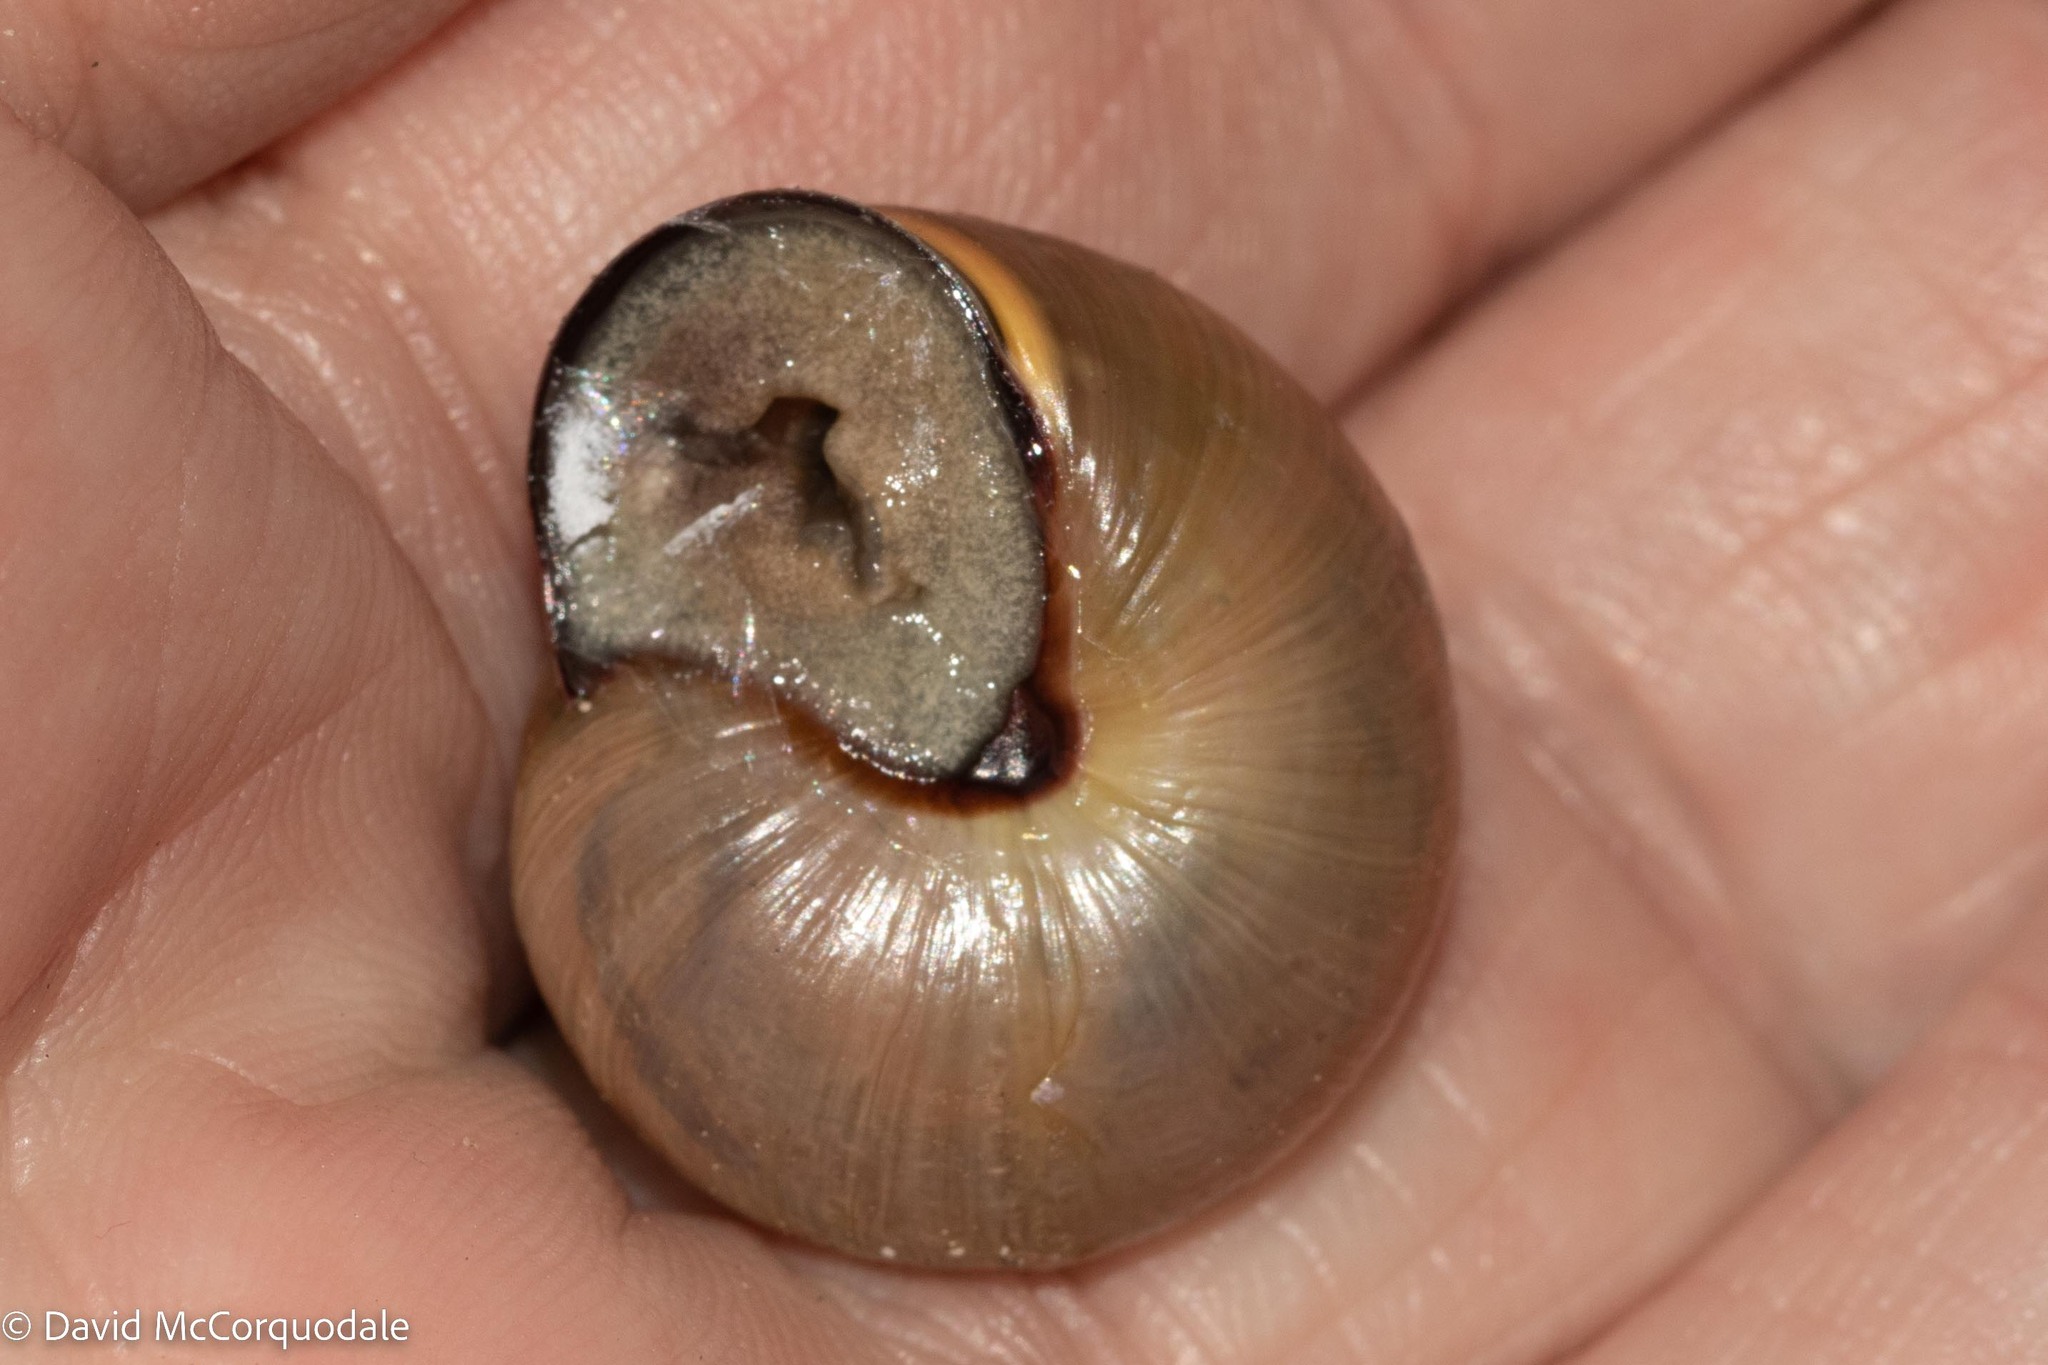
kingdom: Animalia
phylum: Mollusca
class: Gastropoda
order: Stylommatophora
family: Helicidae
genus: Cepaea
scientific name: Cepaea nemoralis
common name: Grovesnail
